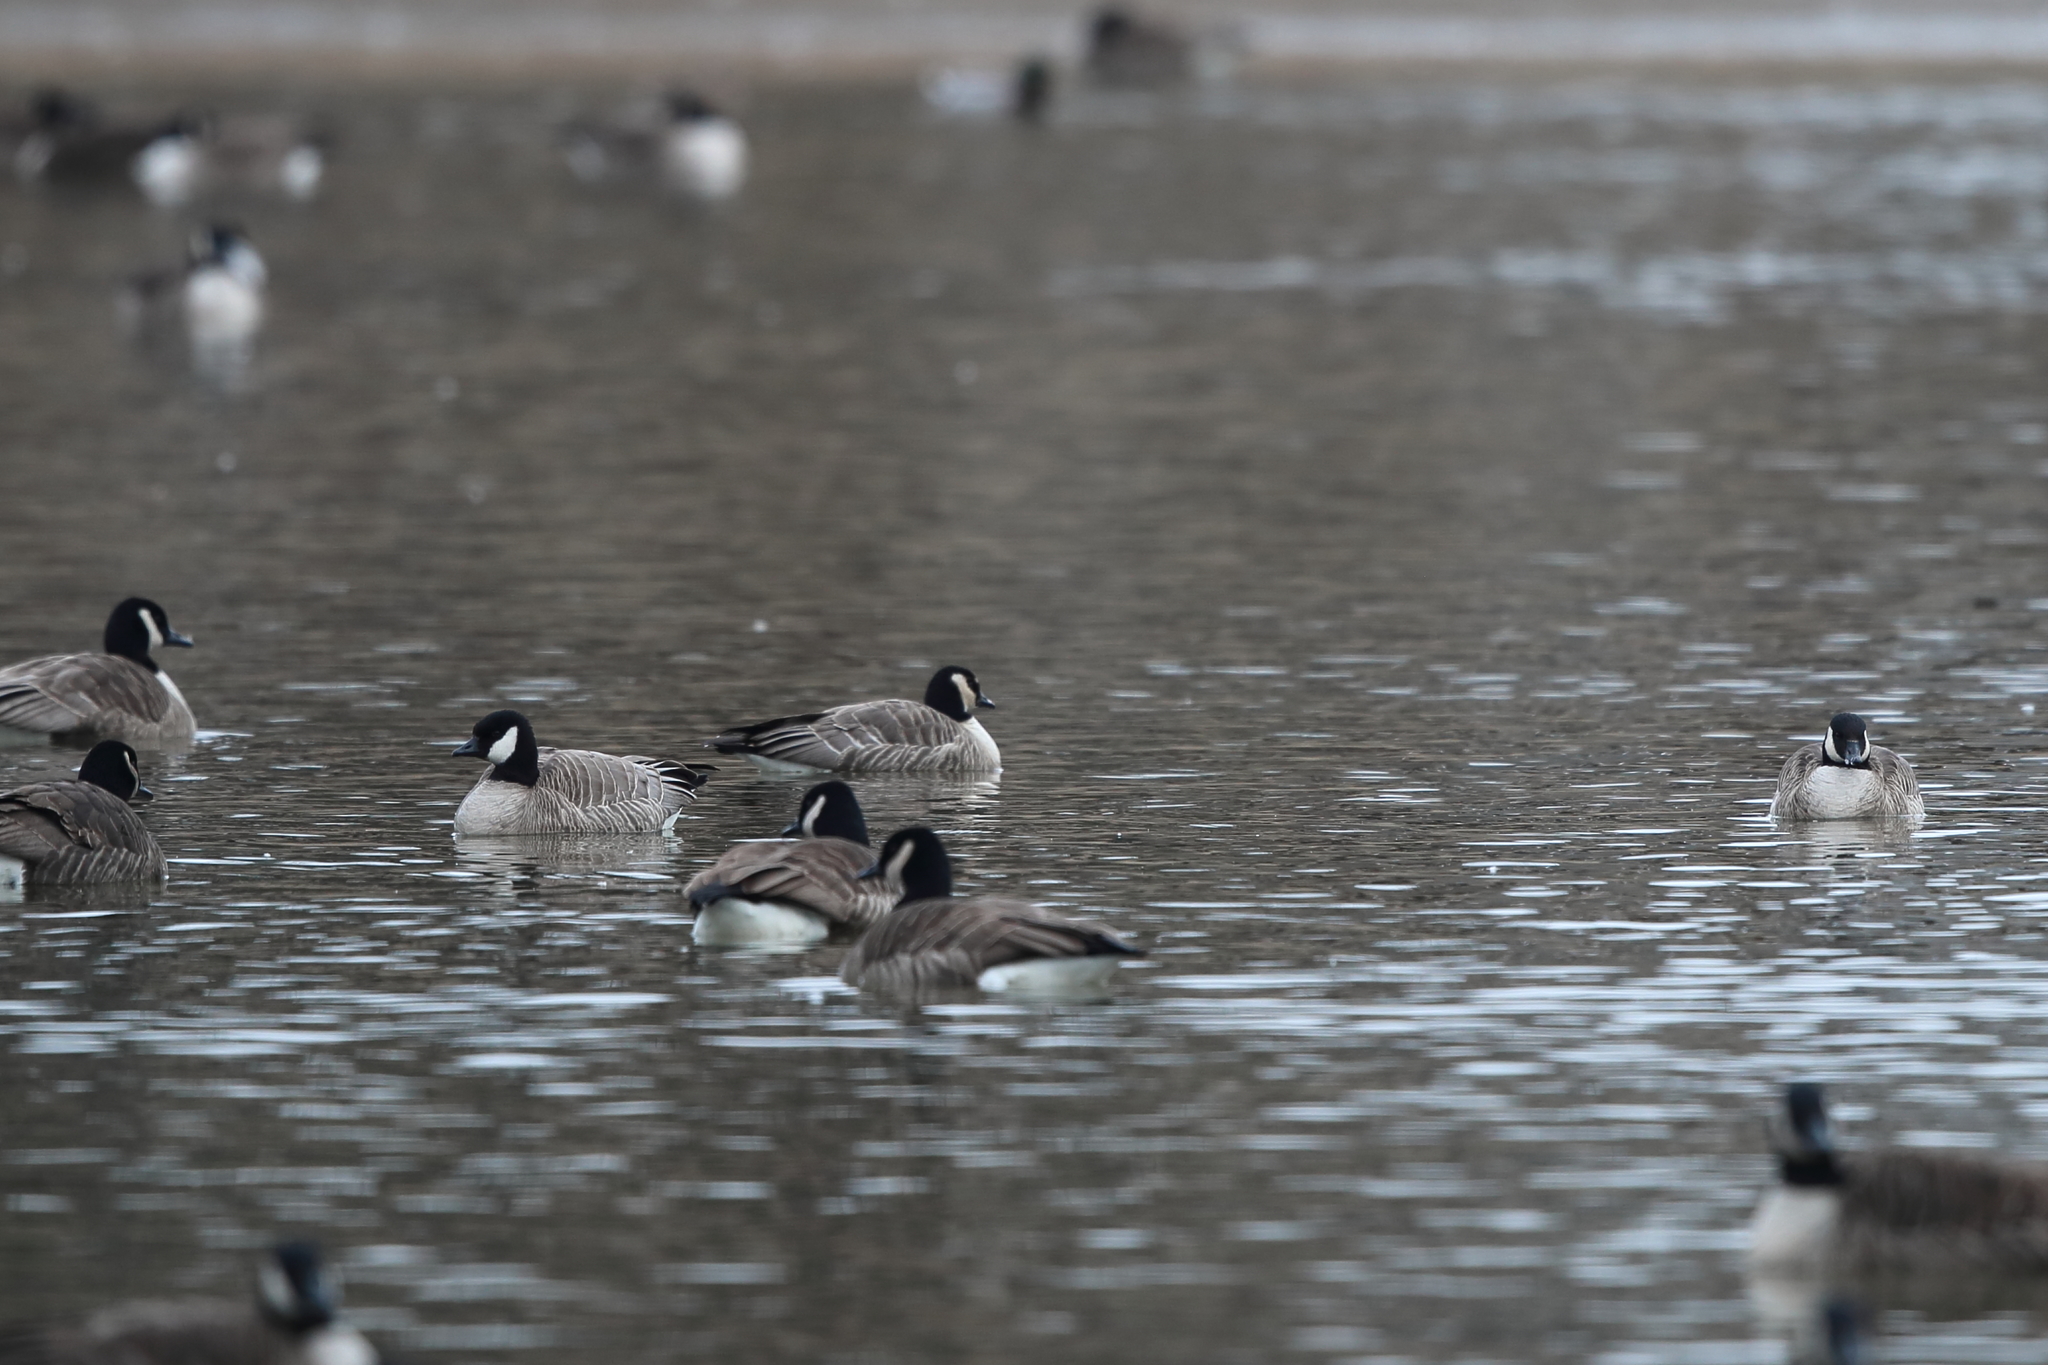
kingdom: Animalia
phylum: Chordata
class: Aves
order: Anseriformes
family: Anatidae
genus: Branta
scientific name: Branta hutchinsii
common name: Cackling goose
